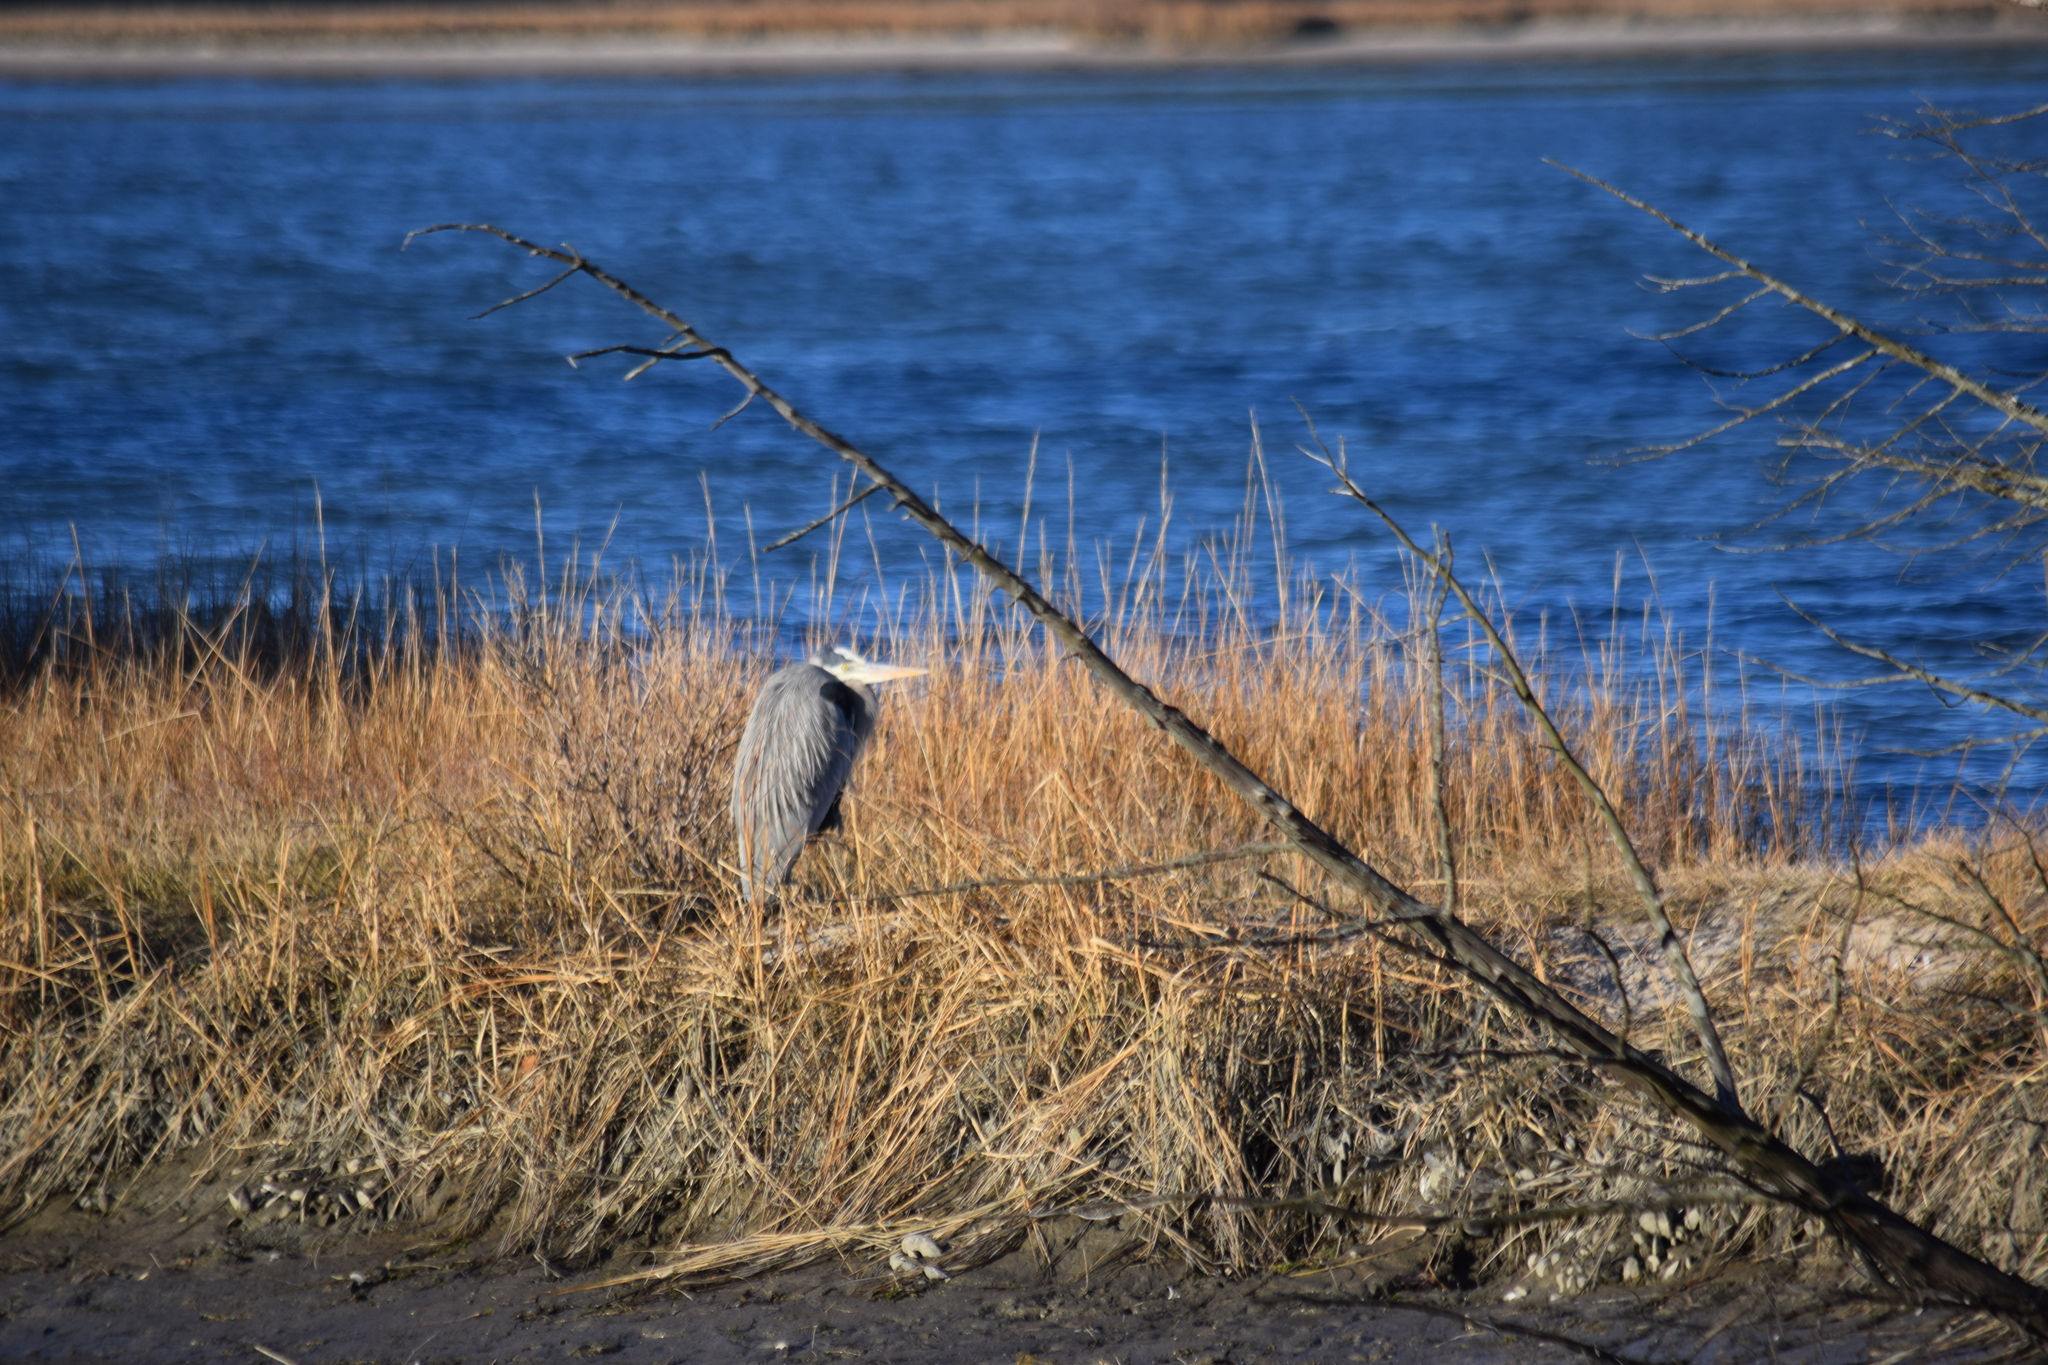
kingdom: Animalia
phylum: Chordata
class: Aves
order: Pelecaniformes
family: Ardeidae
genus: Ardea
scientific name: Ardea herodias
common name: Great blue heron
